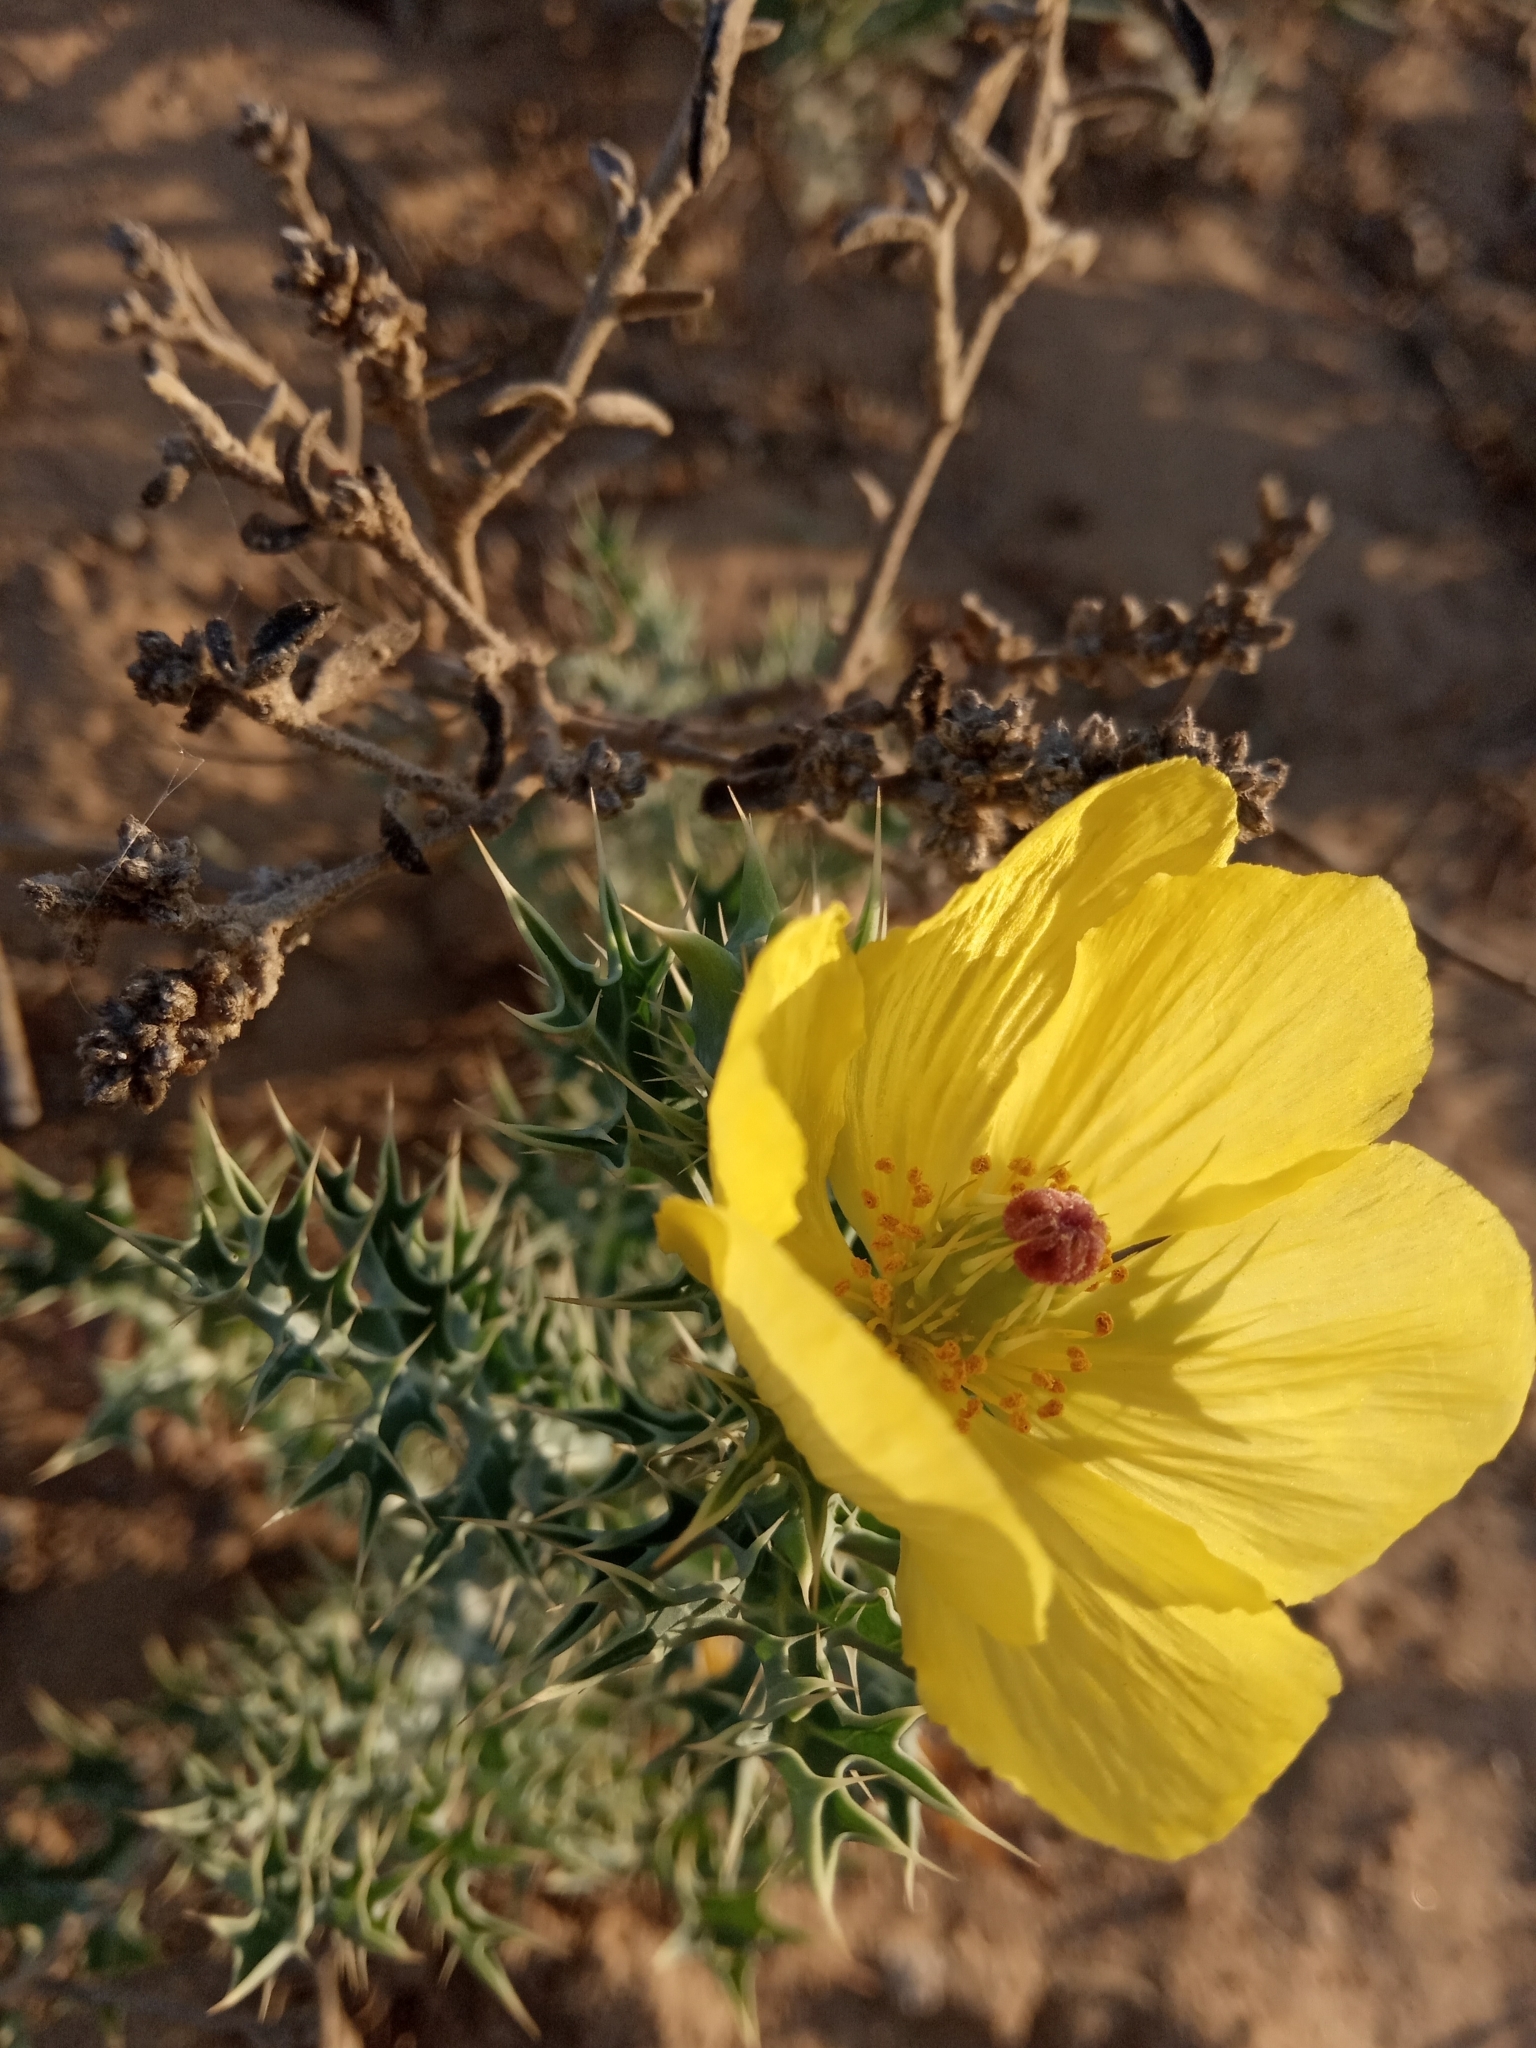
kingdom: Plantae
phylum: Tracheophyta
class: Magnoliopsida
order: Ranunculales
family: Papaveraceae
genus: Argemone
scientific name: Argemone mexicana
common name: Mexican poppy
